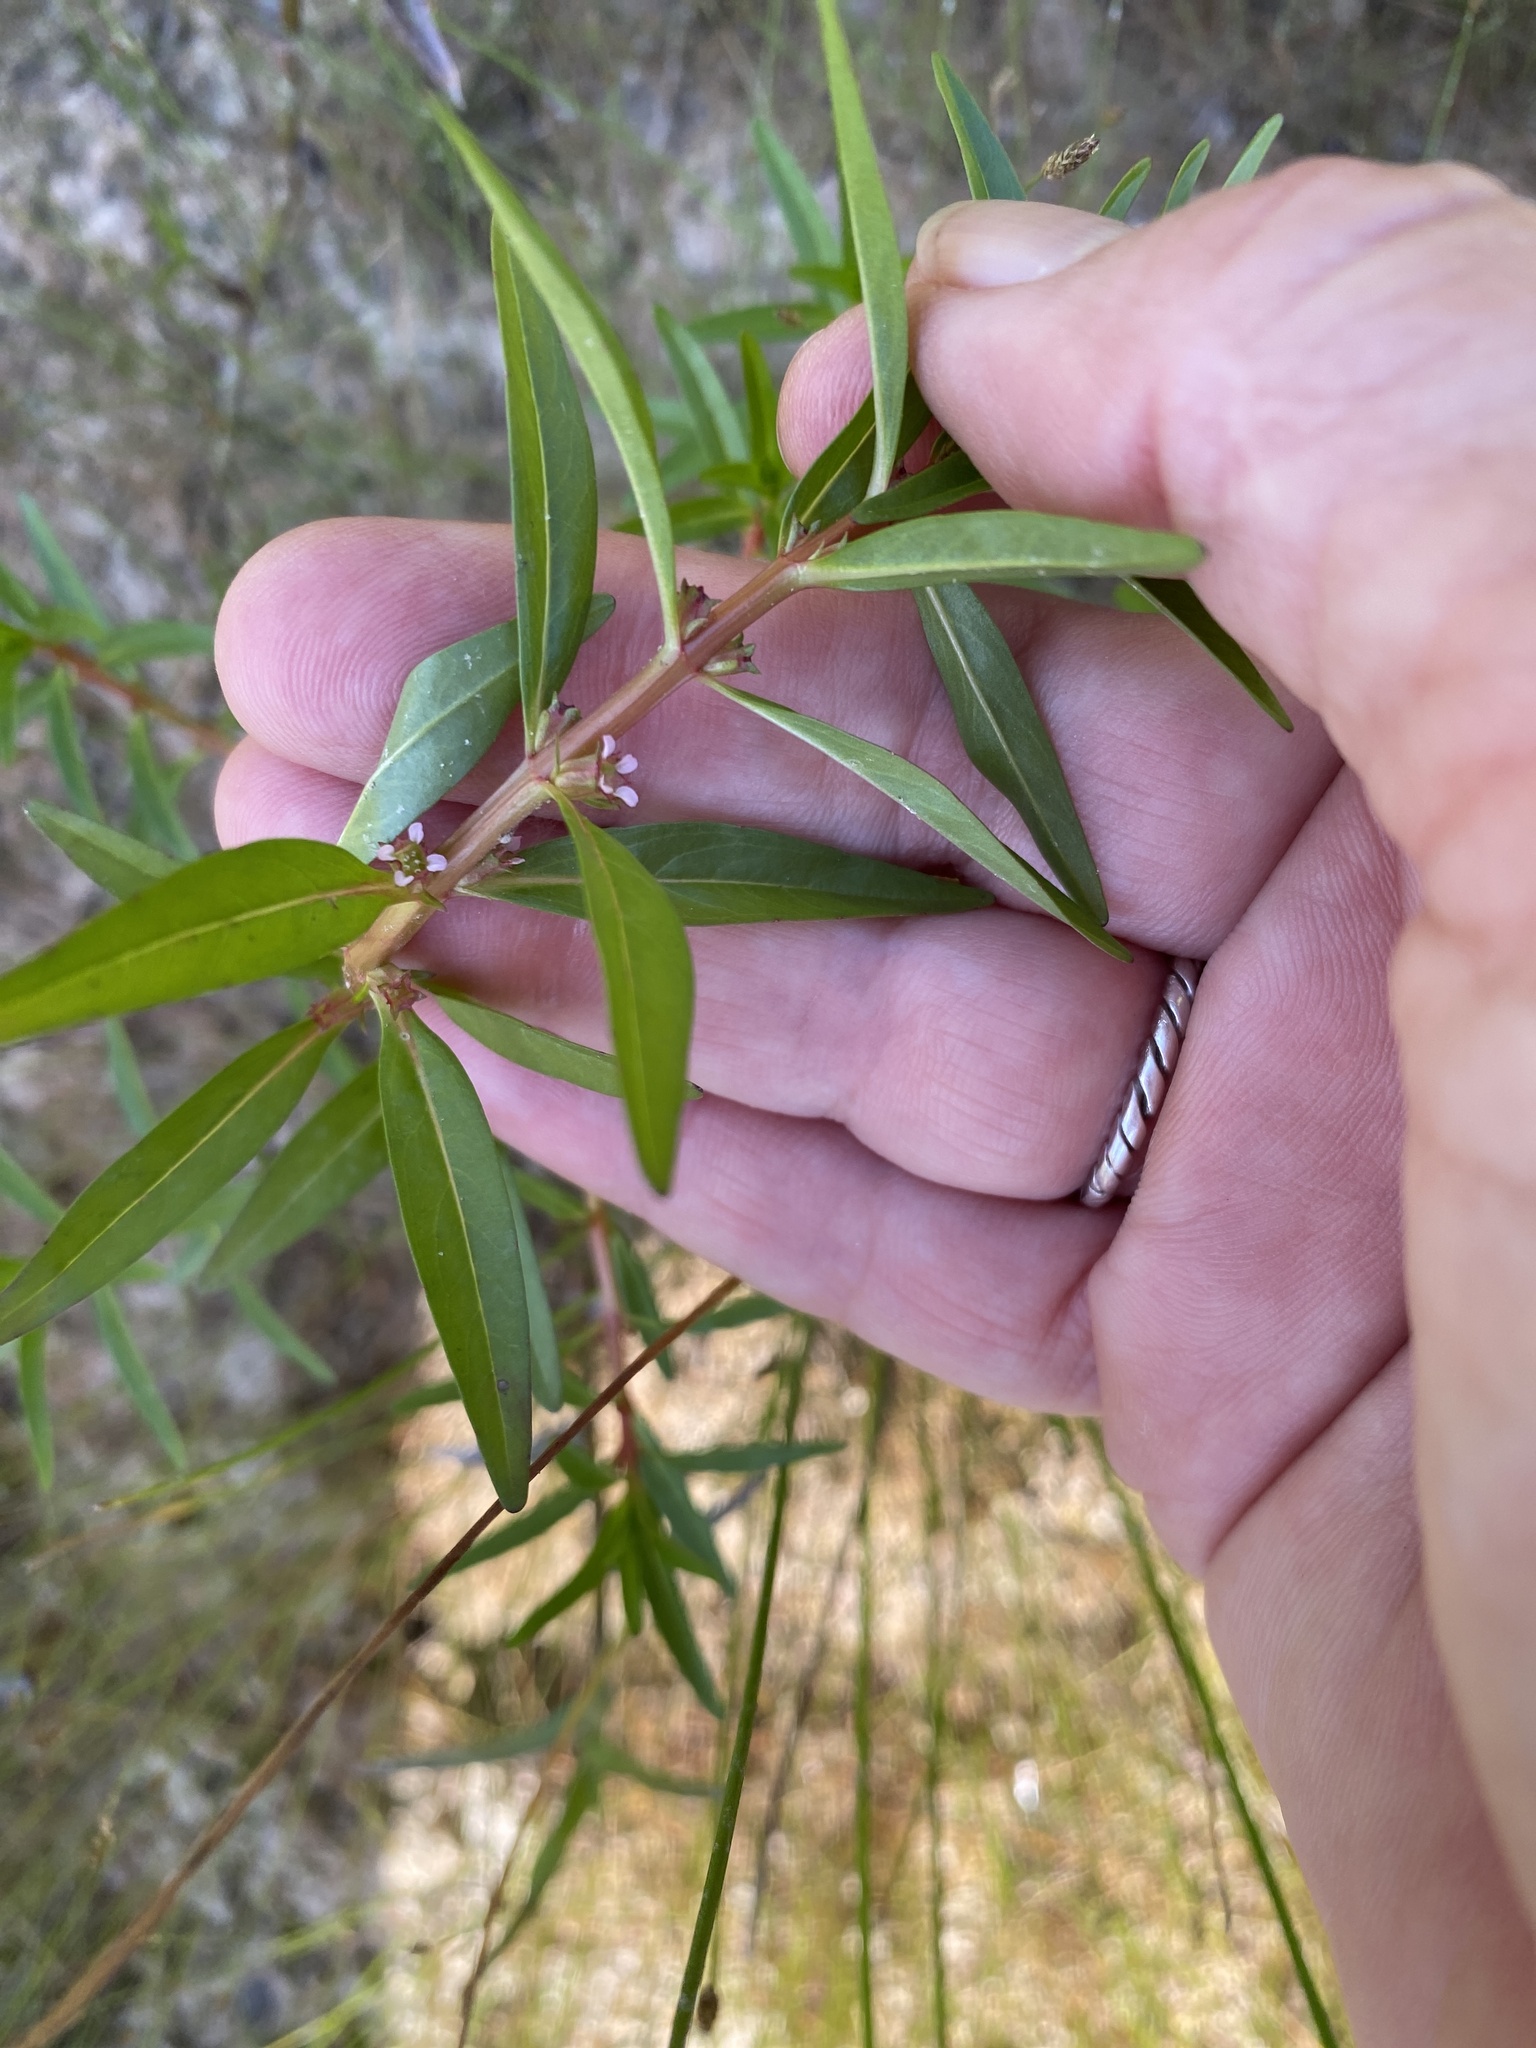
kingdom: Plantae
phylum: Tracheophyta
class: Magnoliopsida
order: Myrtales
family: Lythraceae
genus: Rotala
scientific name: Rotala ramosior
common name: Lowland rotala
